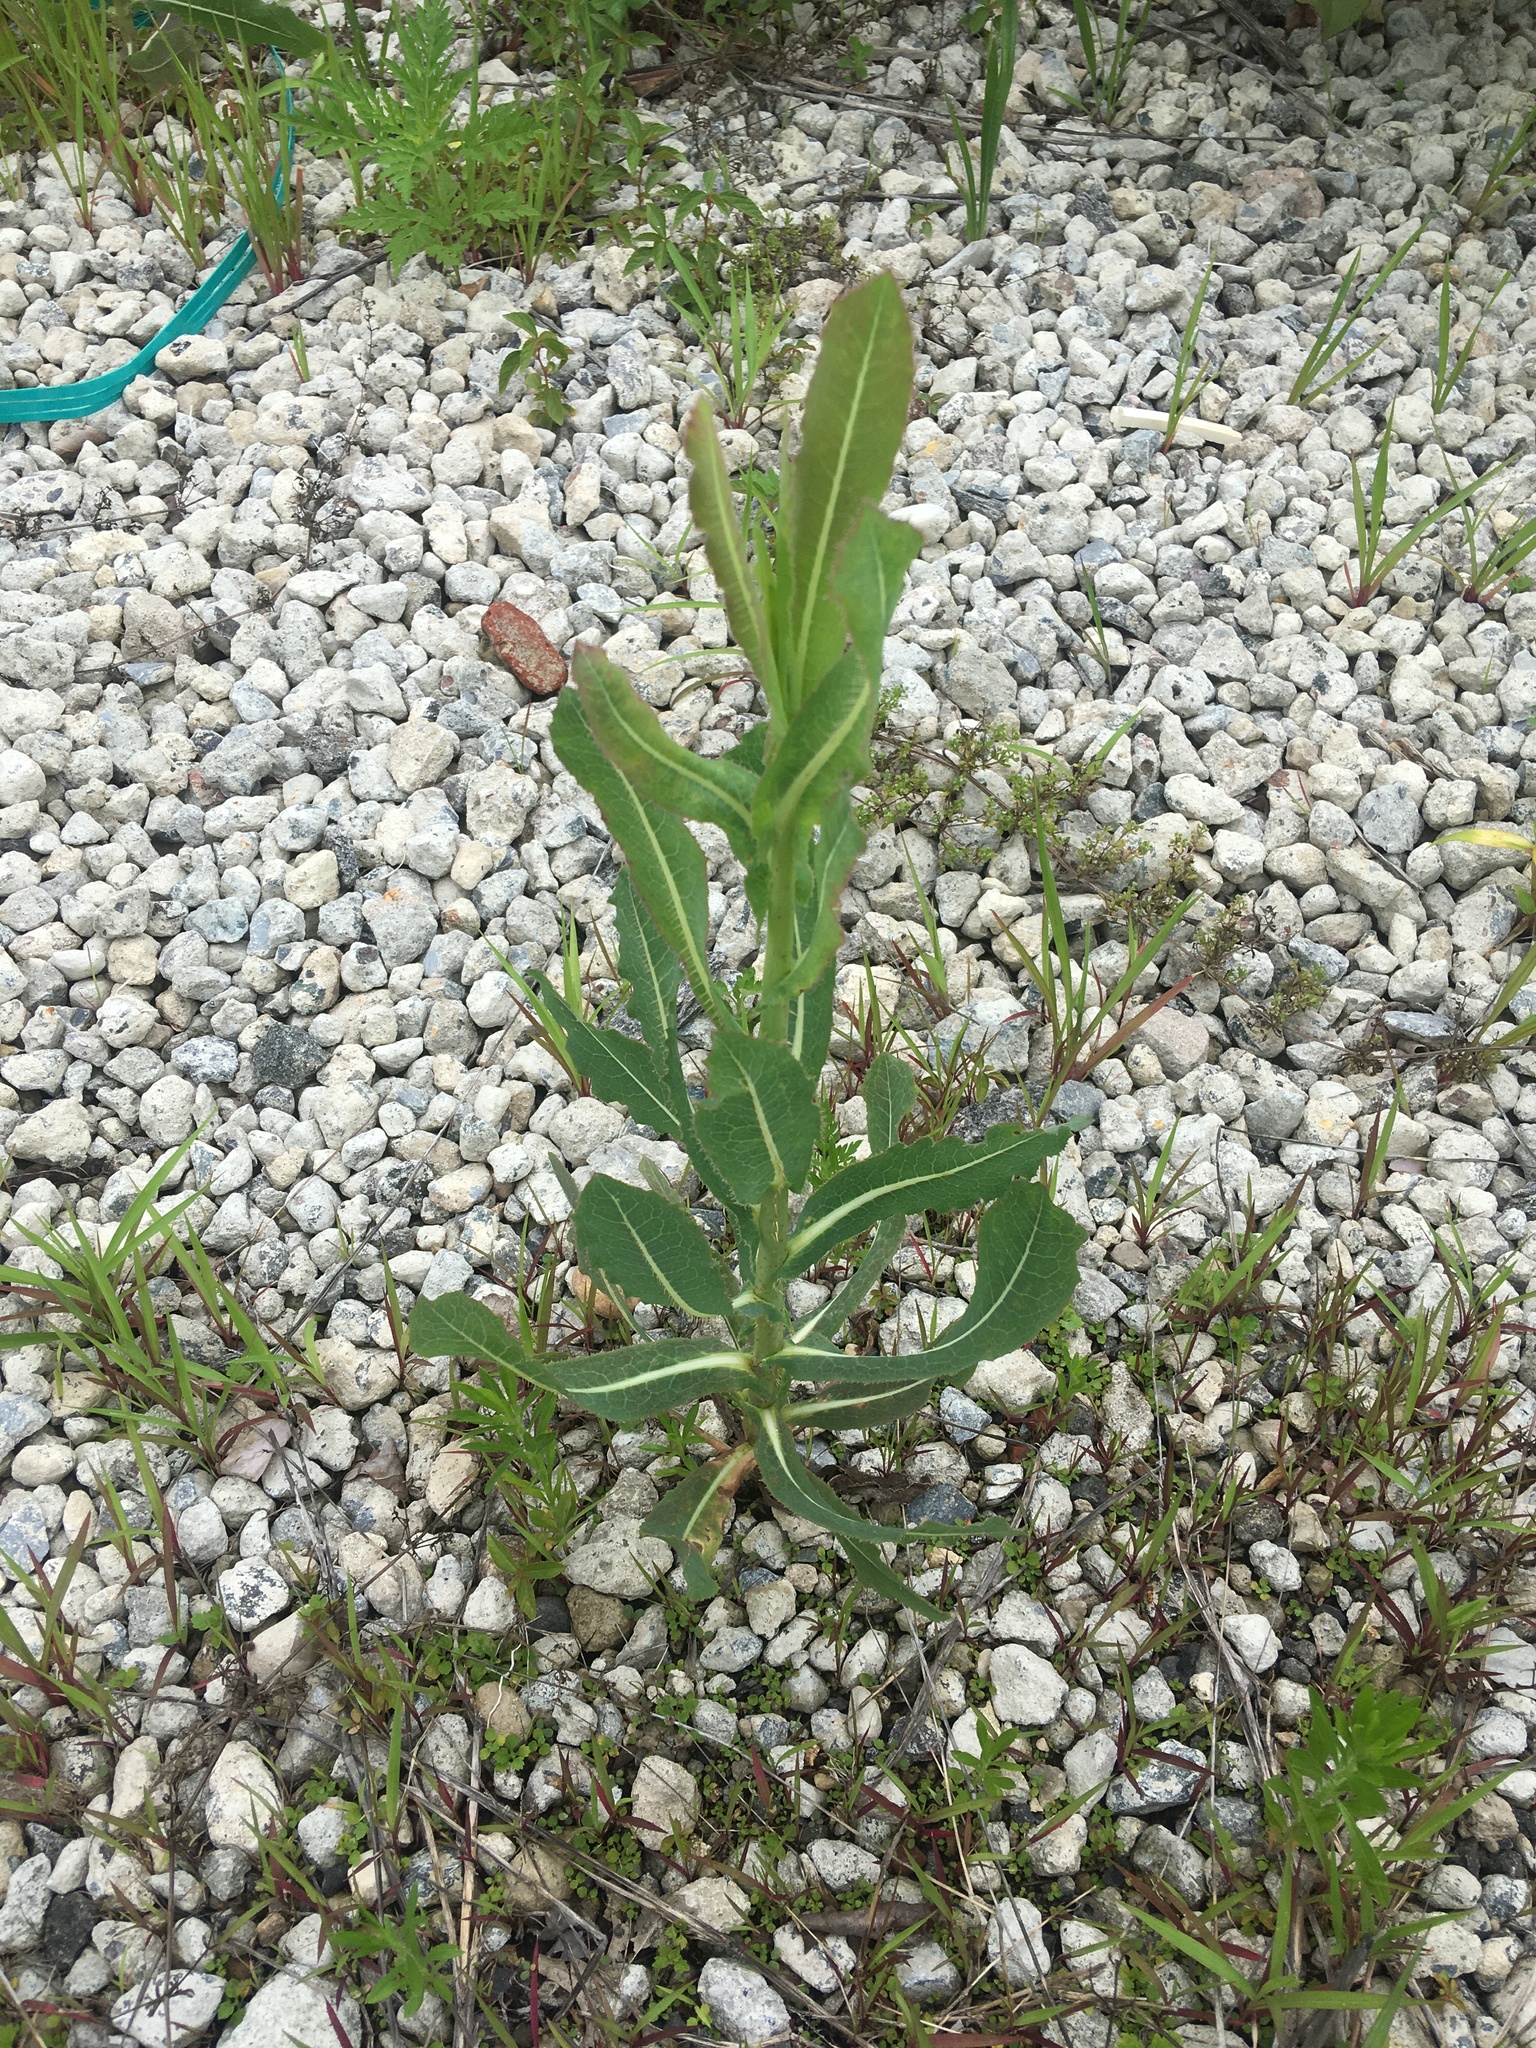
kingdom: Plantae
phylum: Tracheophyta
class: Magnoliopsida
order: Asterales
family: Asteraceae
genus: Lactuca
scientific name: Lactuca serriola
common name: Prickly lettuce
